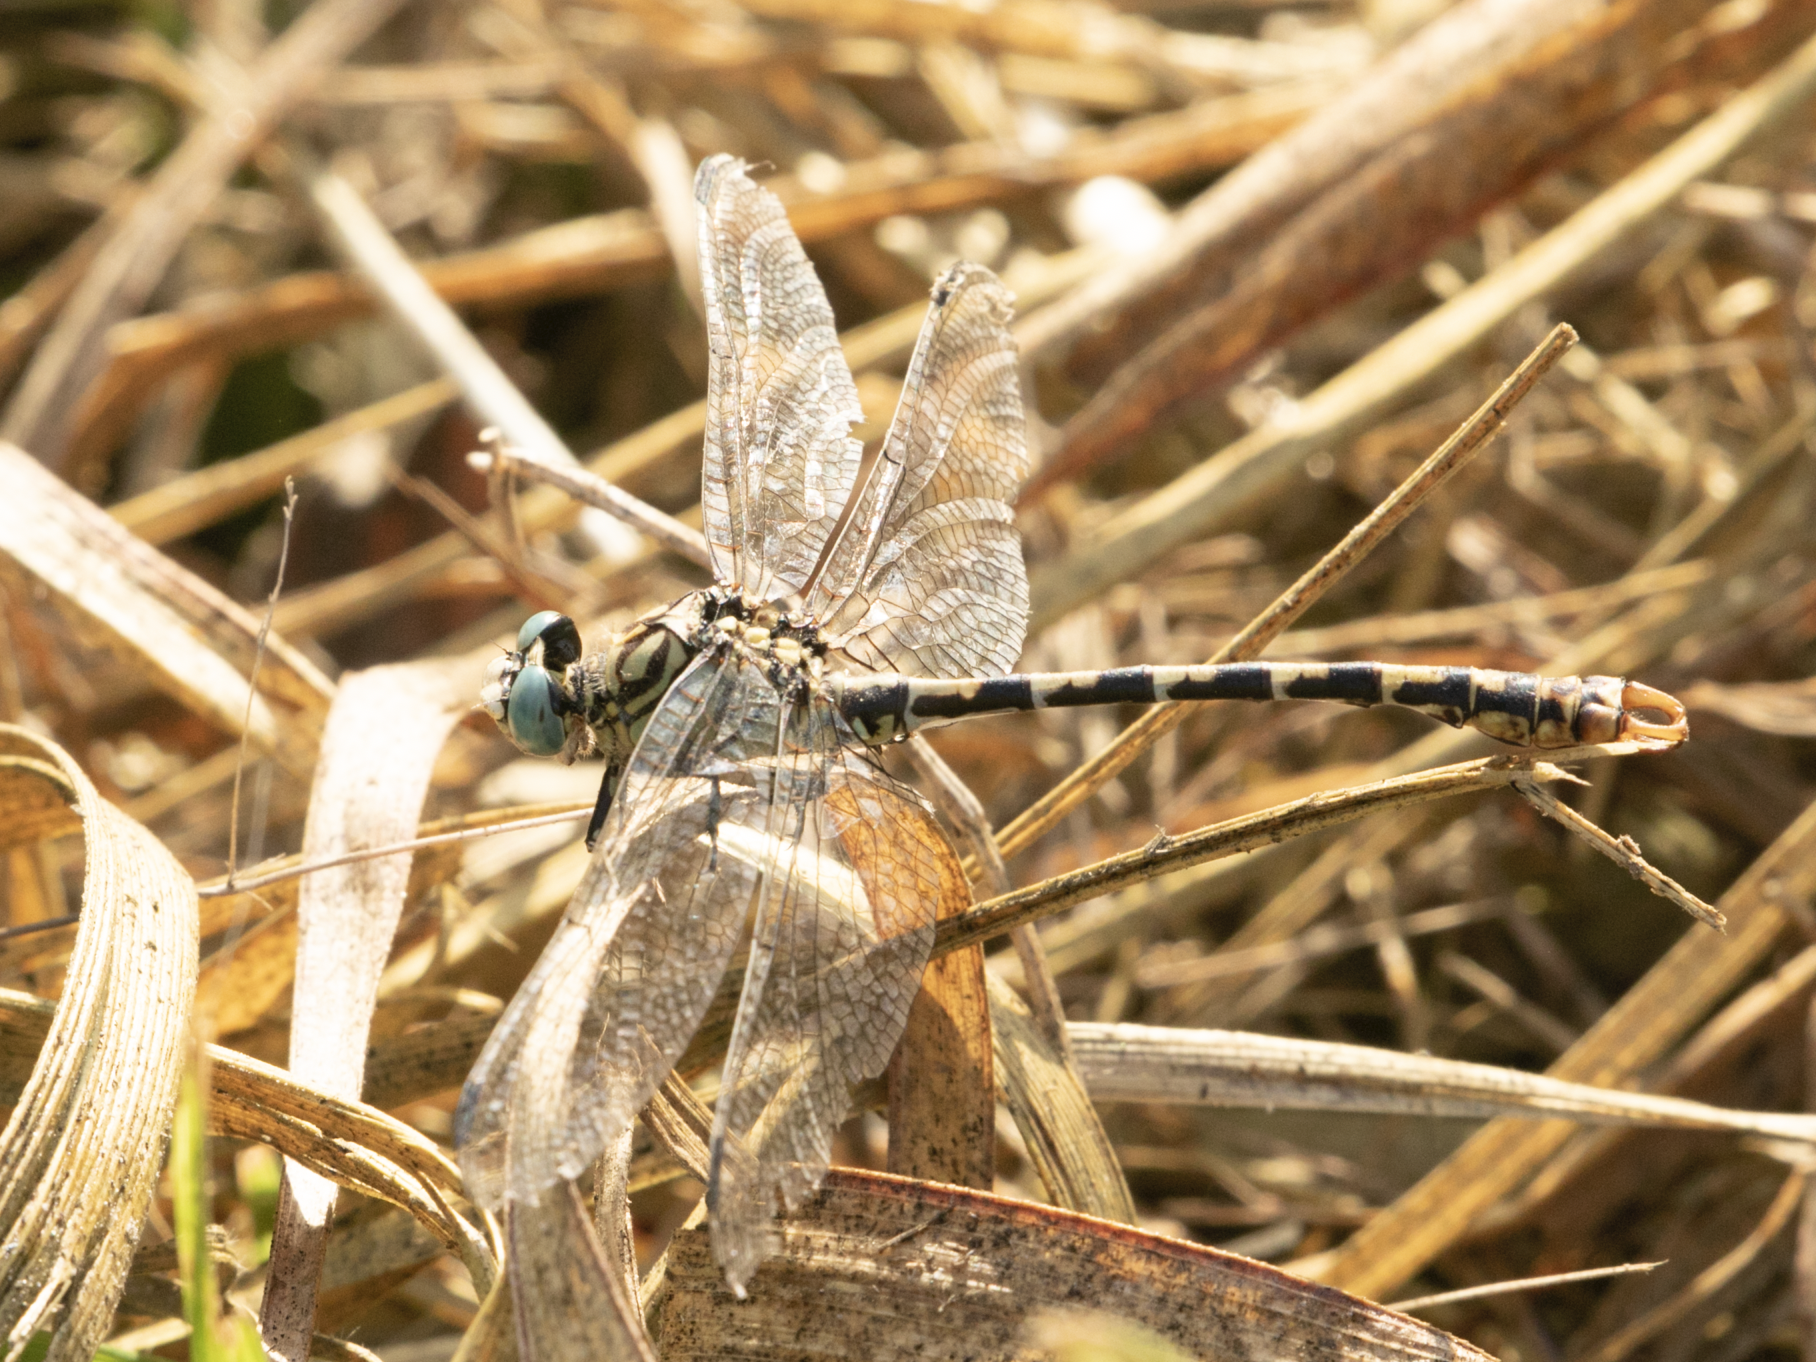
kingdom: Animalia
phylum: Arthropoda
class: Insecta
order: Odonata
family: Gomphidae
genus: Onychogomphus
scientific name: Onychogomphus forcipatus
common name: Small pincertail
